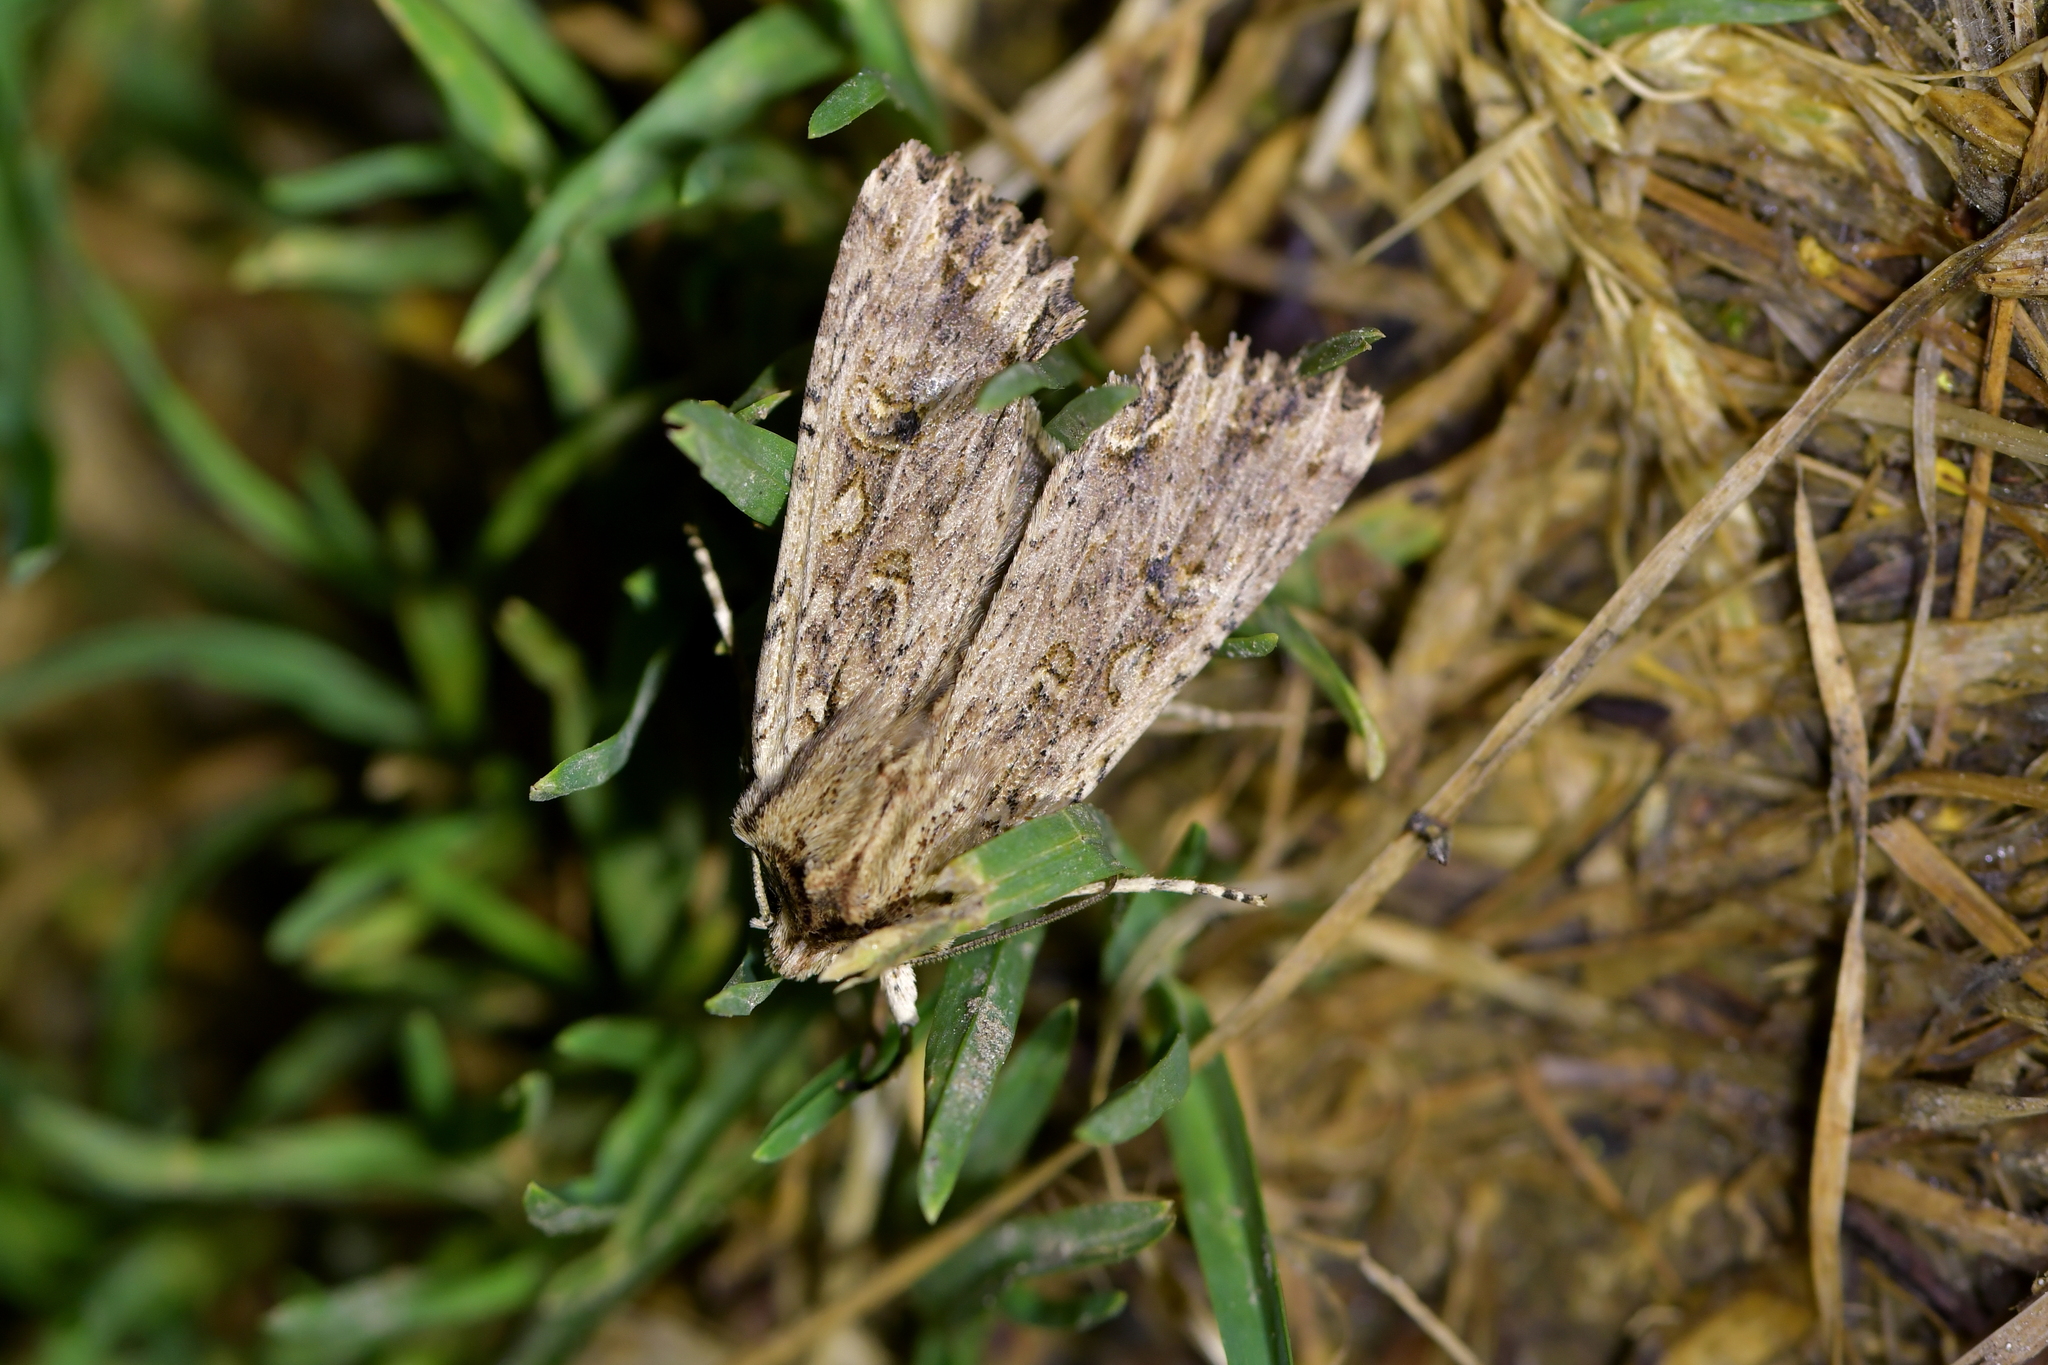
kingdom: Animalia
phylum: Arthropoda
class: Insecta
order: Lepidoptera
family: Noctuidae
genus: Ichneutica
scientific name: Ichneutica lignana
